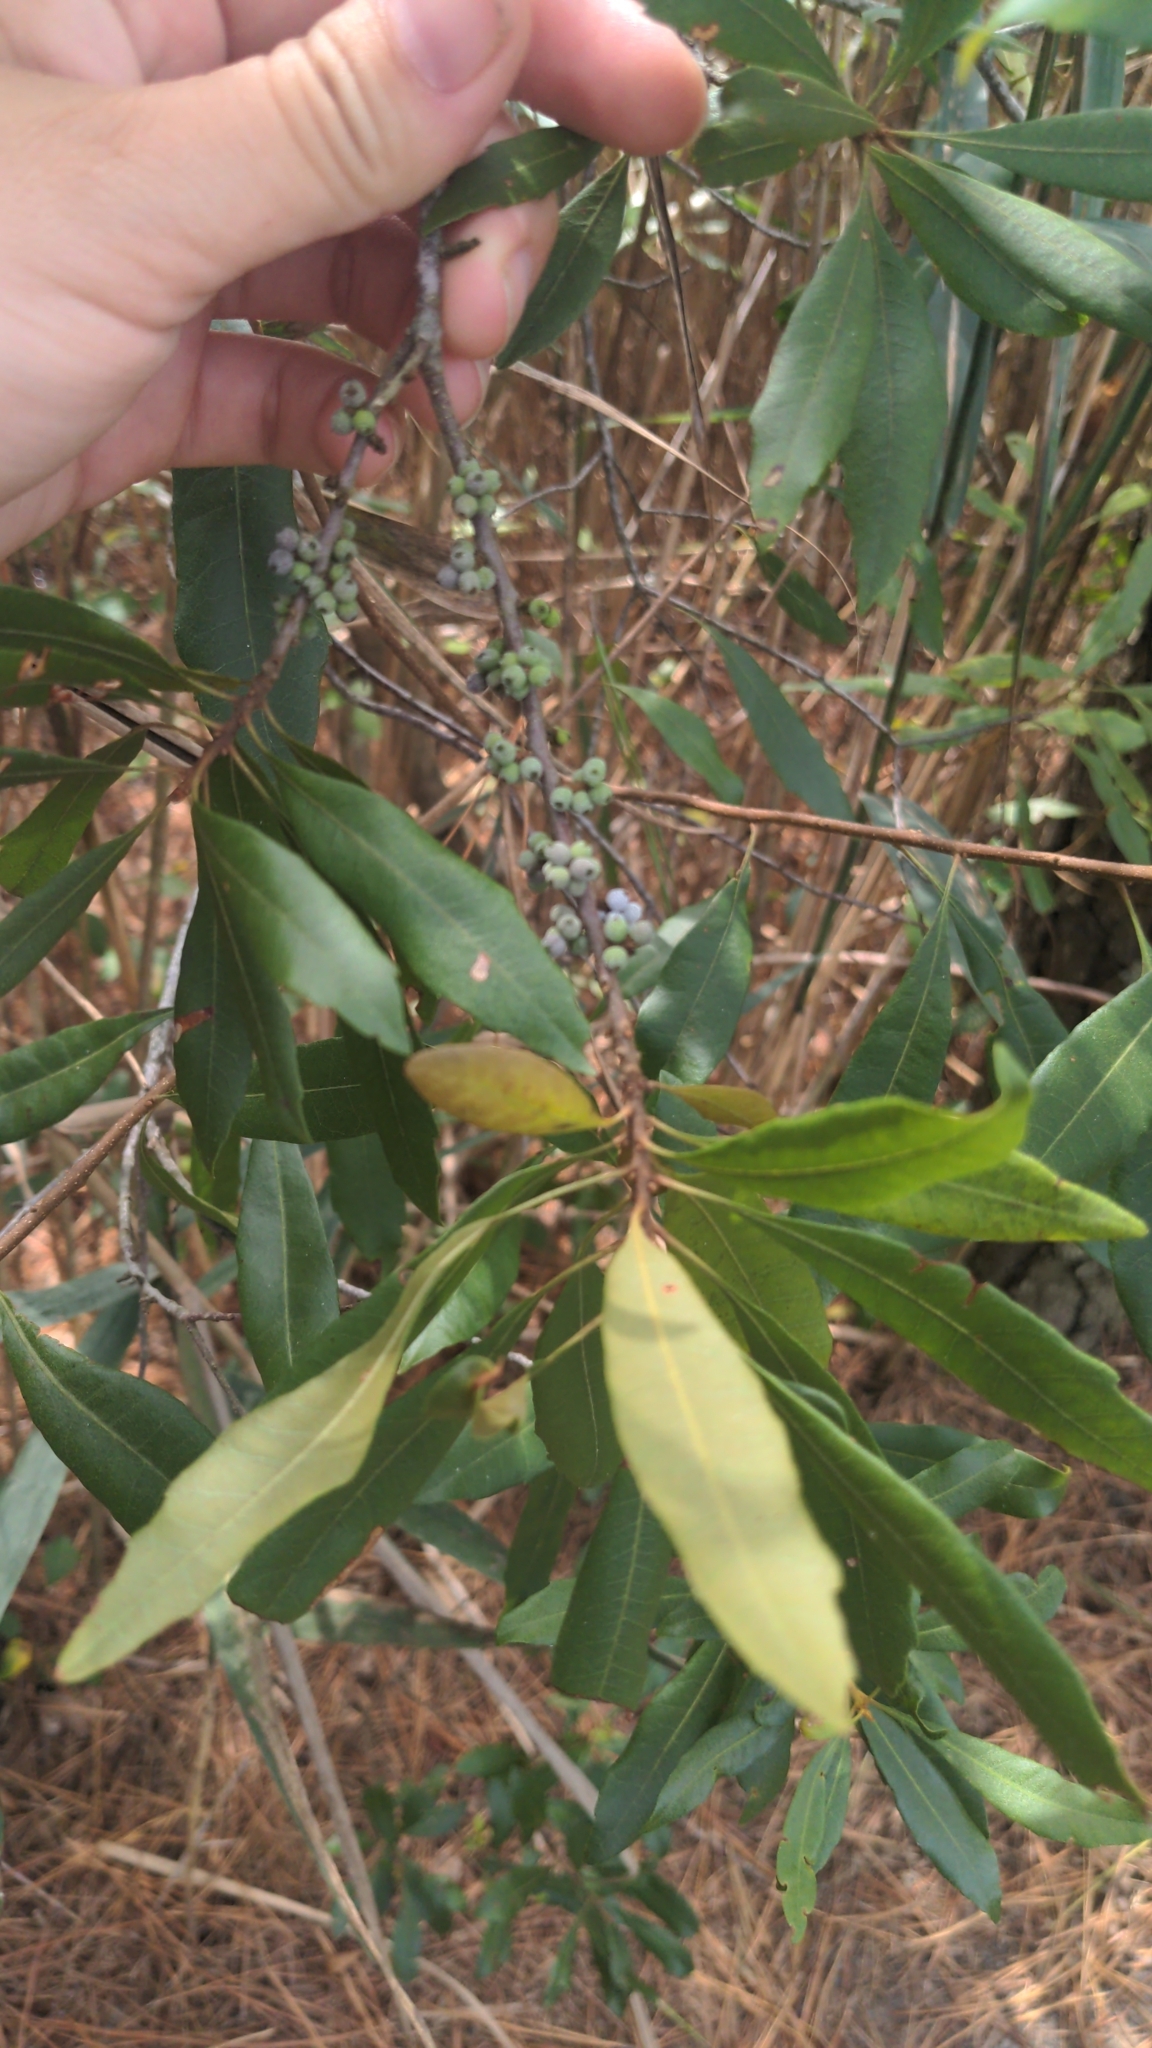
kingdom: Plantae
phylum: Tracheophyta
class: Magnoliopsida
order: Fagales
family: Myricaceae
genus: Morella
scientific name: Morella cerifera
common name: Wax myrtle
